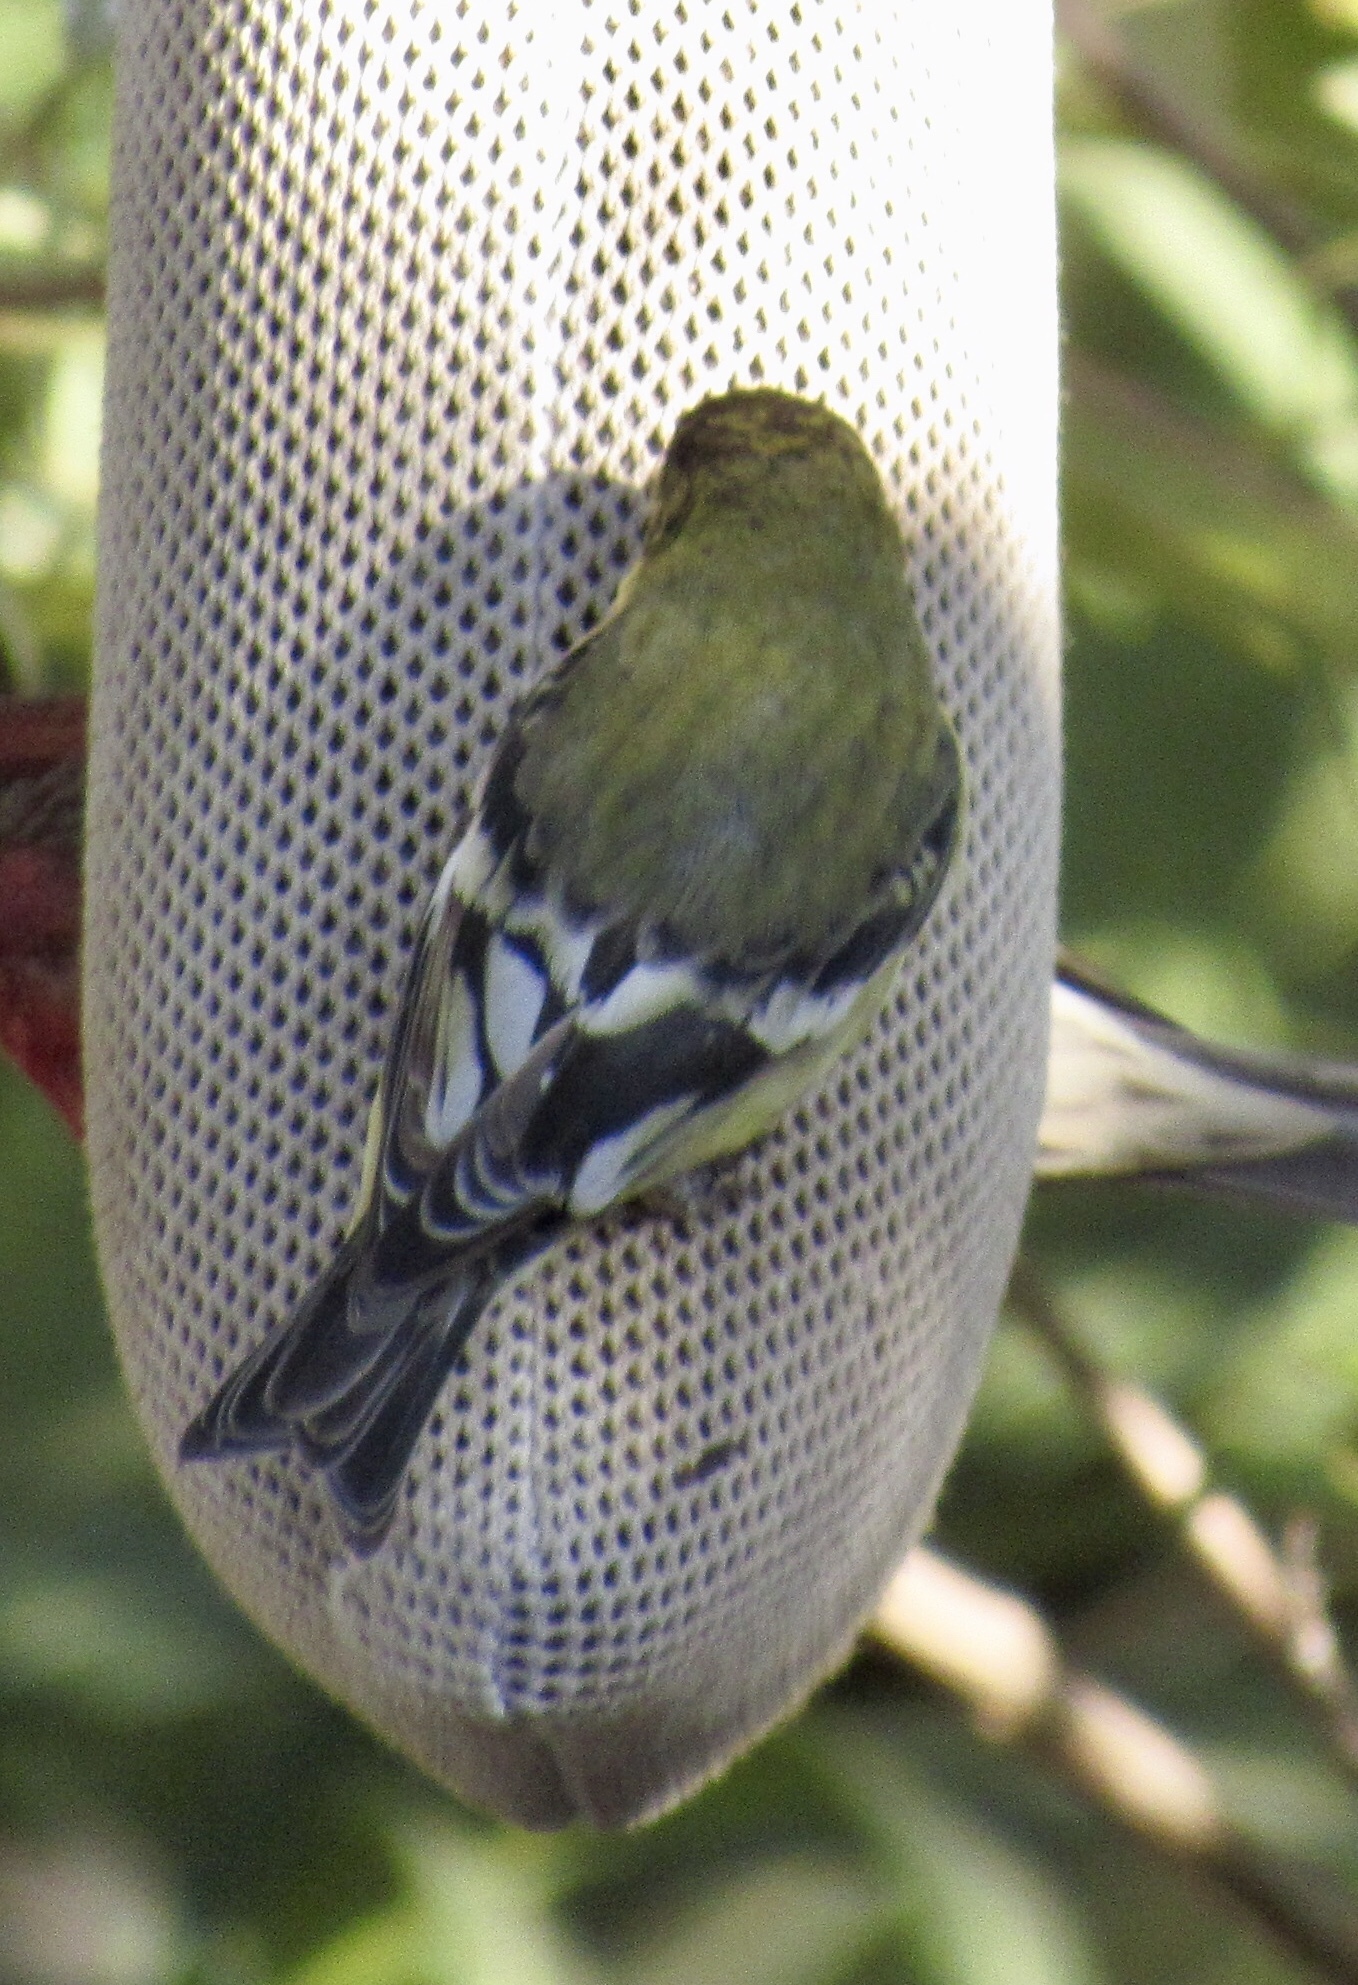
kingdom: Animalia
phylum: Chordata
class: Aves
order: Passeriformes
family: Fringillidae
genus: Spinus
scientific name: Spinus psaltria
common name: Lesser goldfinch
